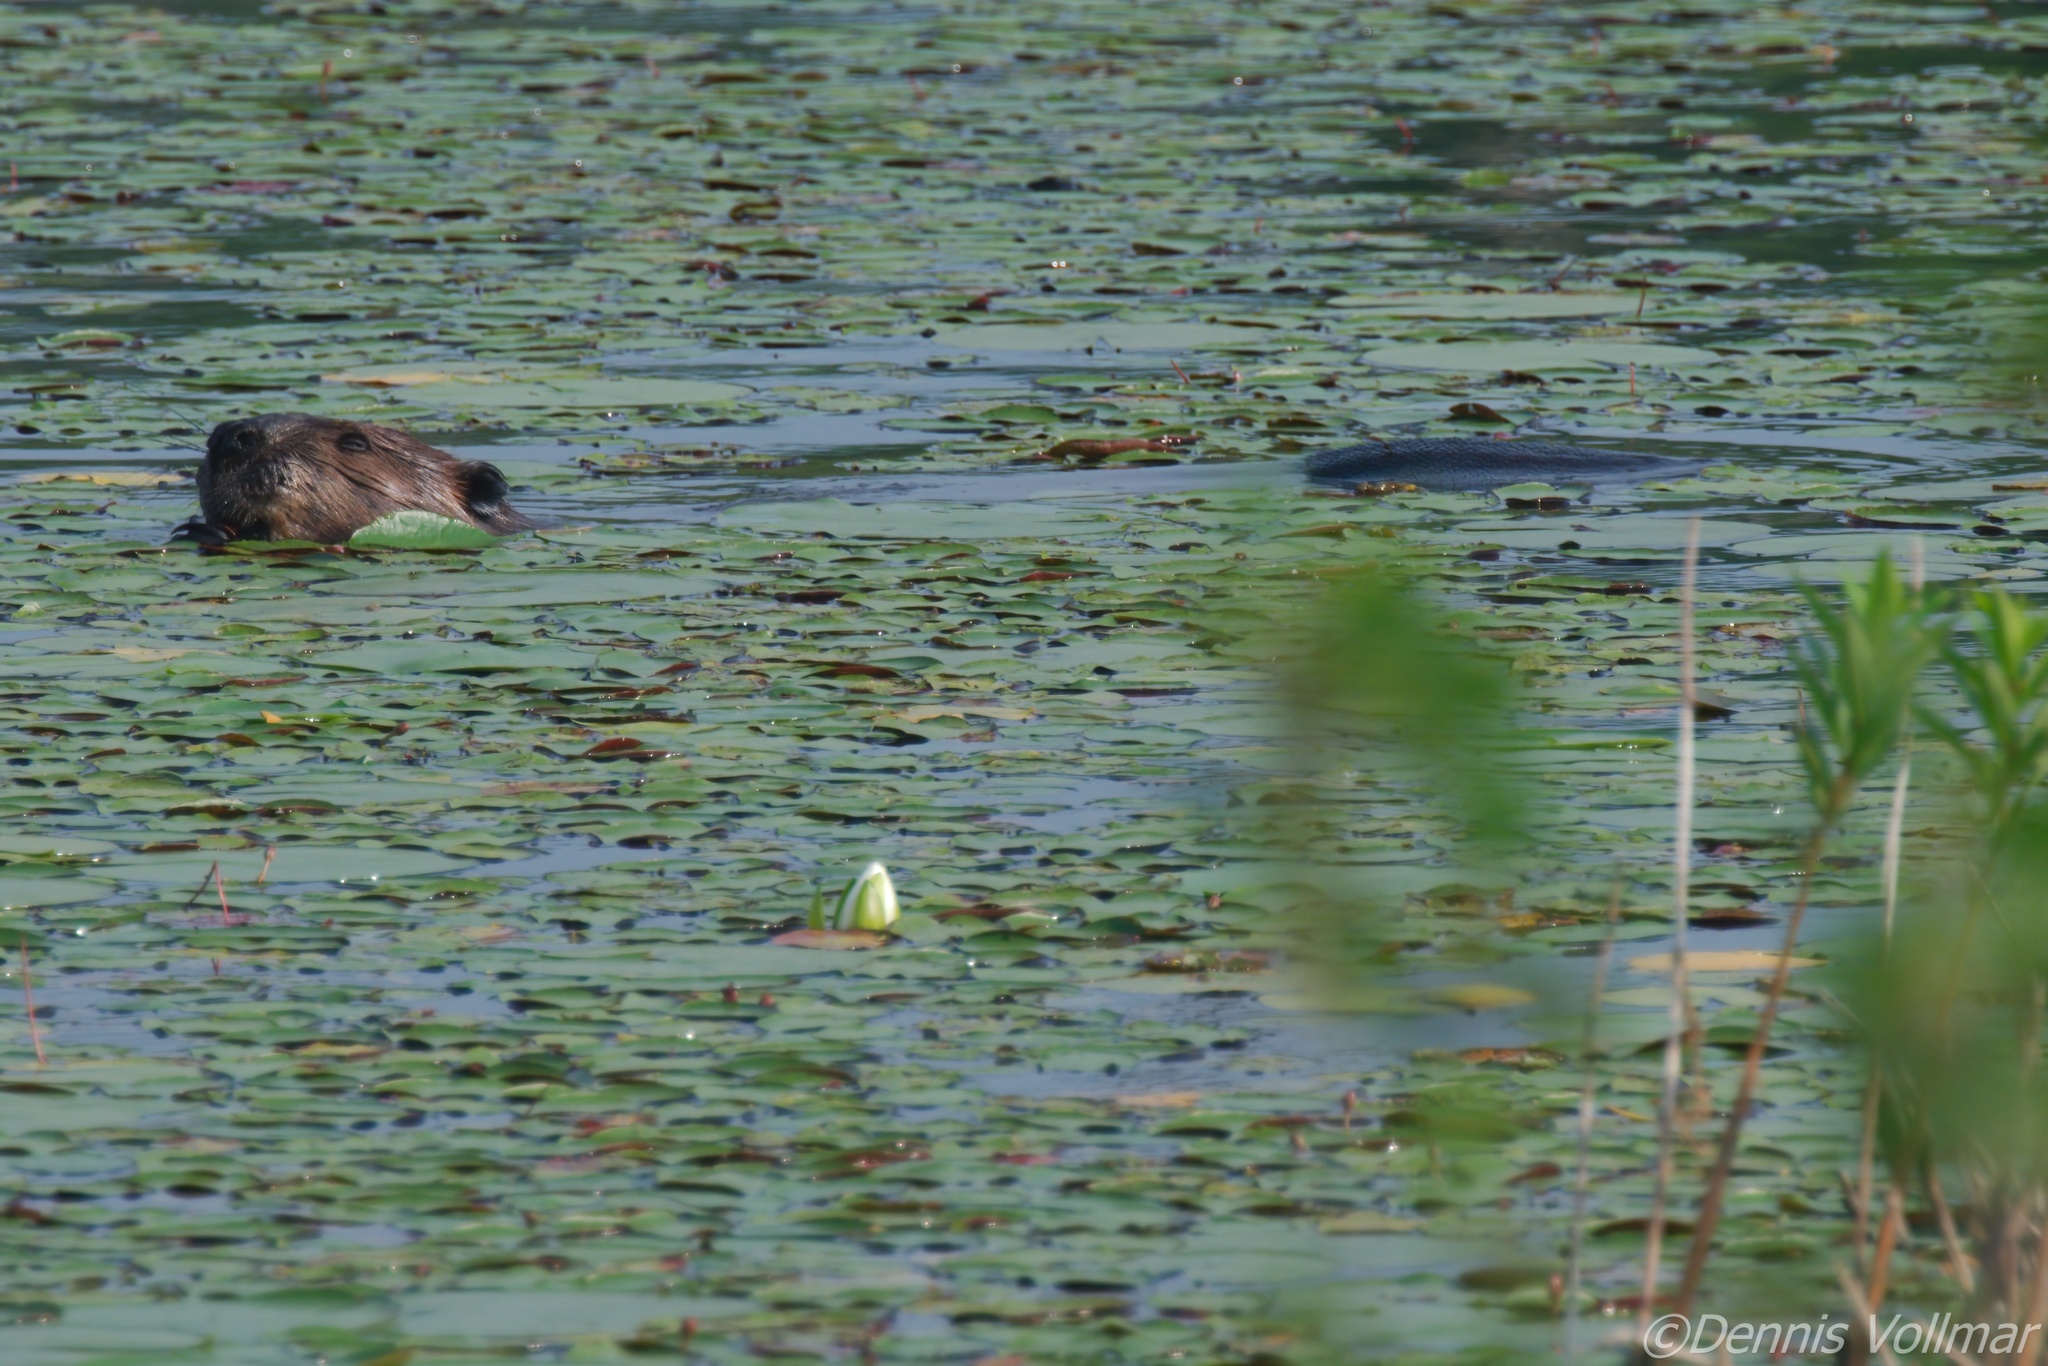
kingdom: Animalia
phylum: Chordata
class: Mammalia
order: Rodentia
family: Castoridae
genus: Castor
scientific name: Castor canadensis
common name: American beaver
